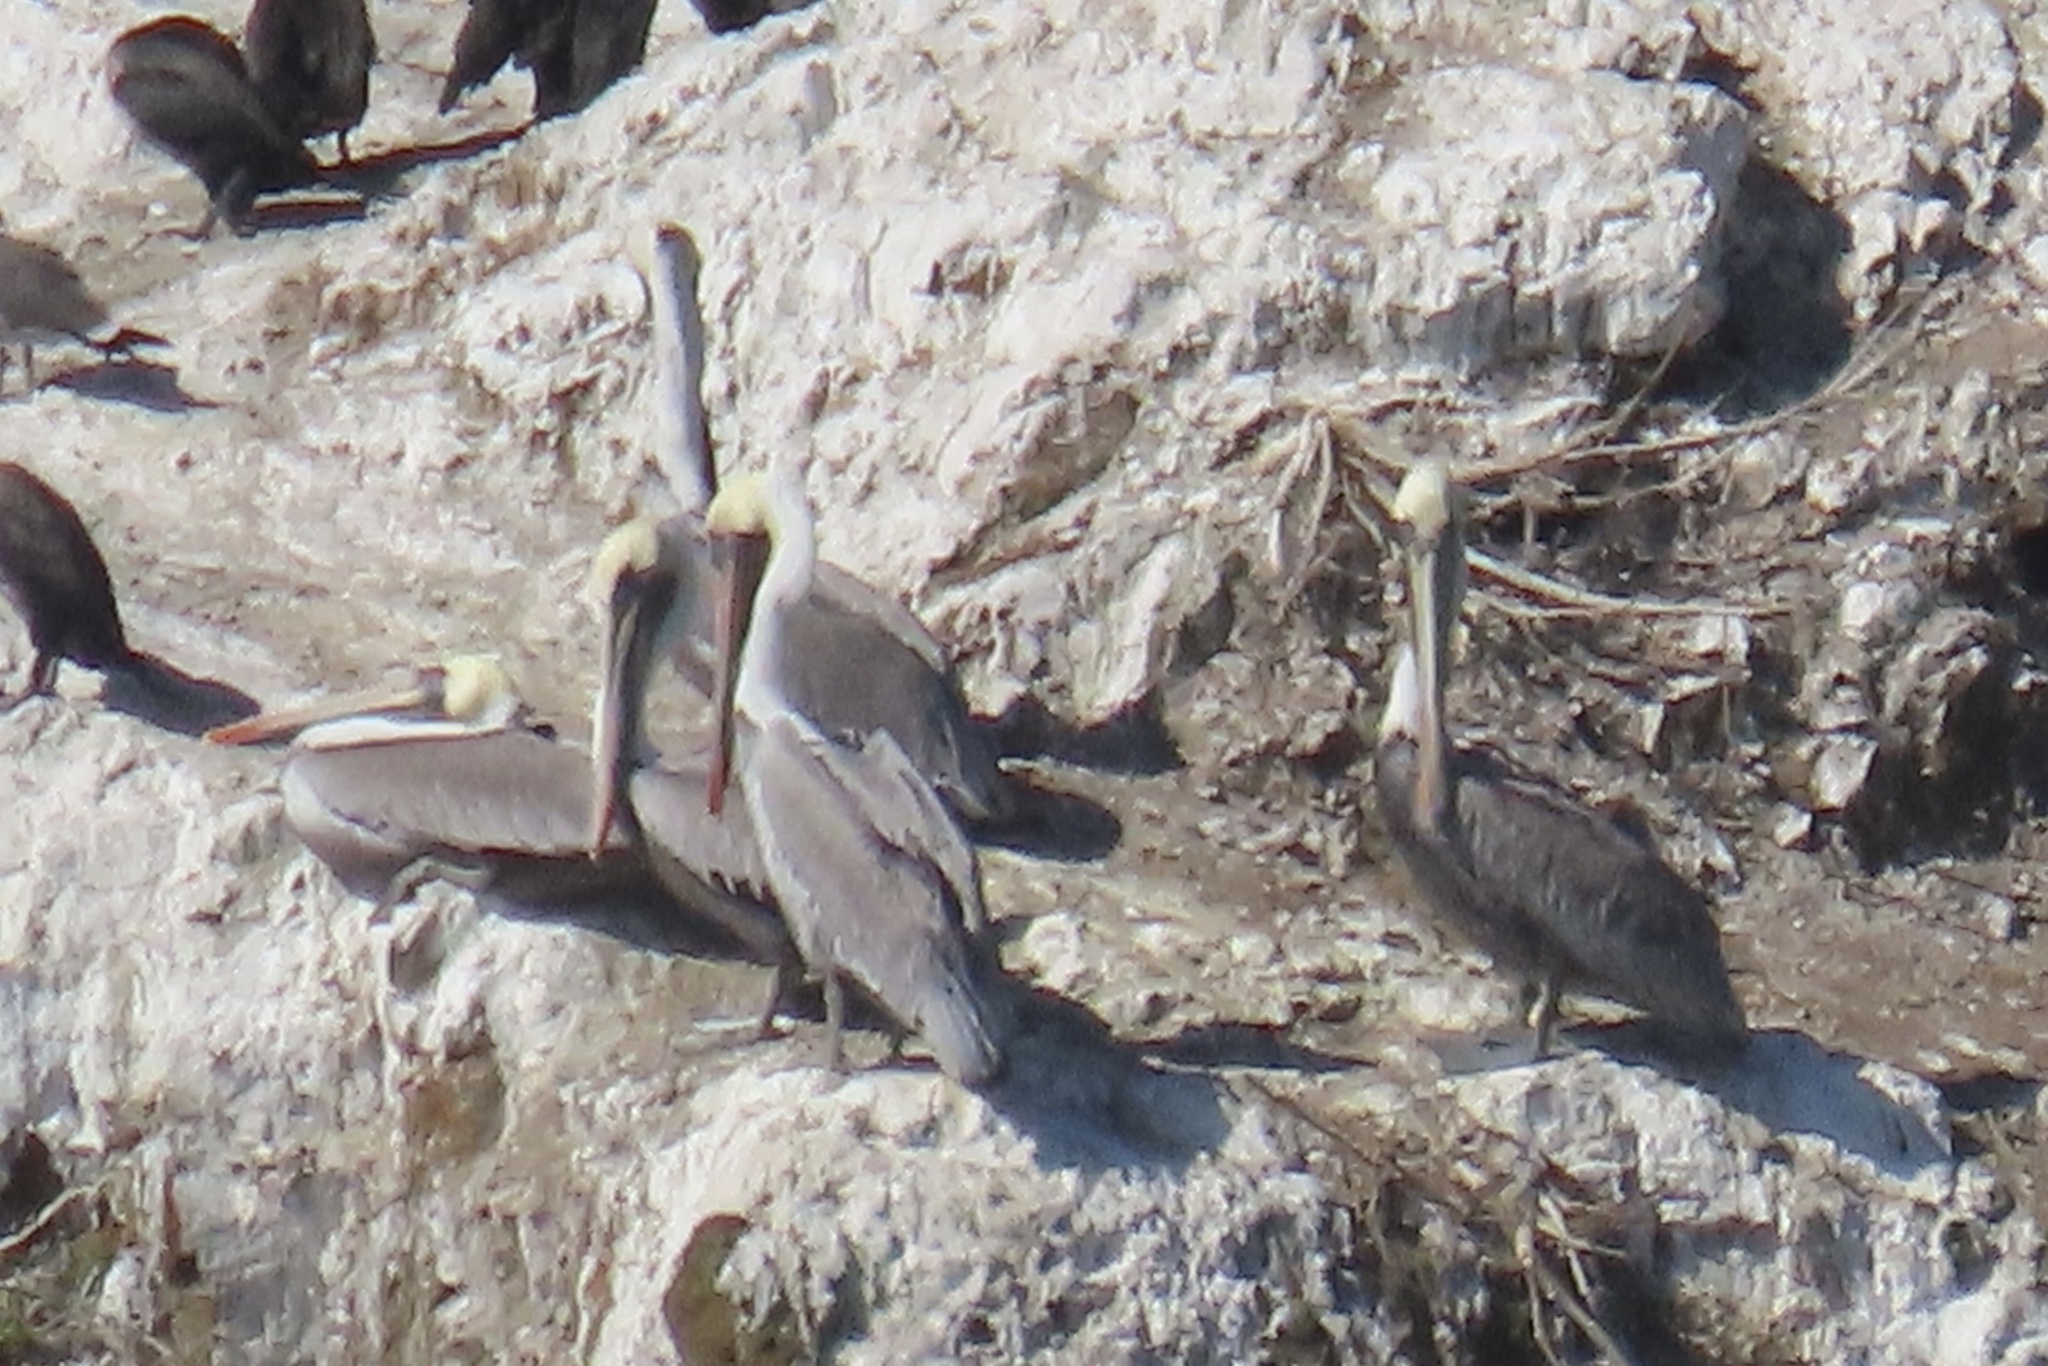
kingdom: Animalia
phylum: Chordata
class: Aves
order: Pelecaniformes
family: Pelecanidae
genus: Pelecanus
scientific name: Pelecanus occidentalis
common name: Brown pelican
